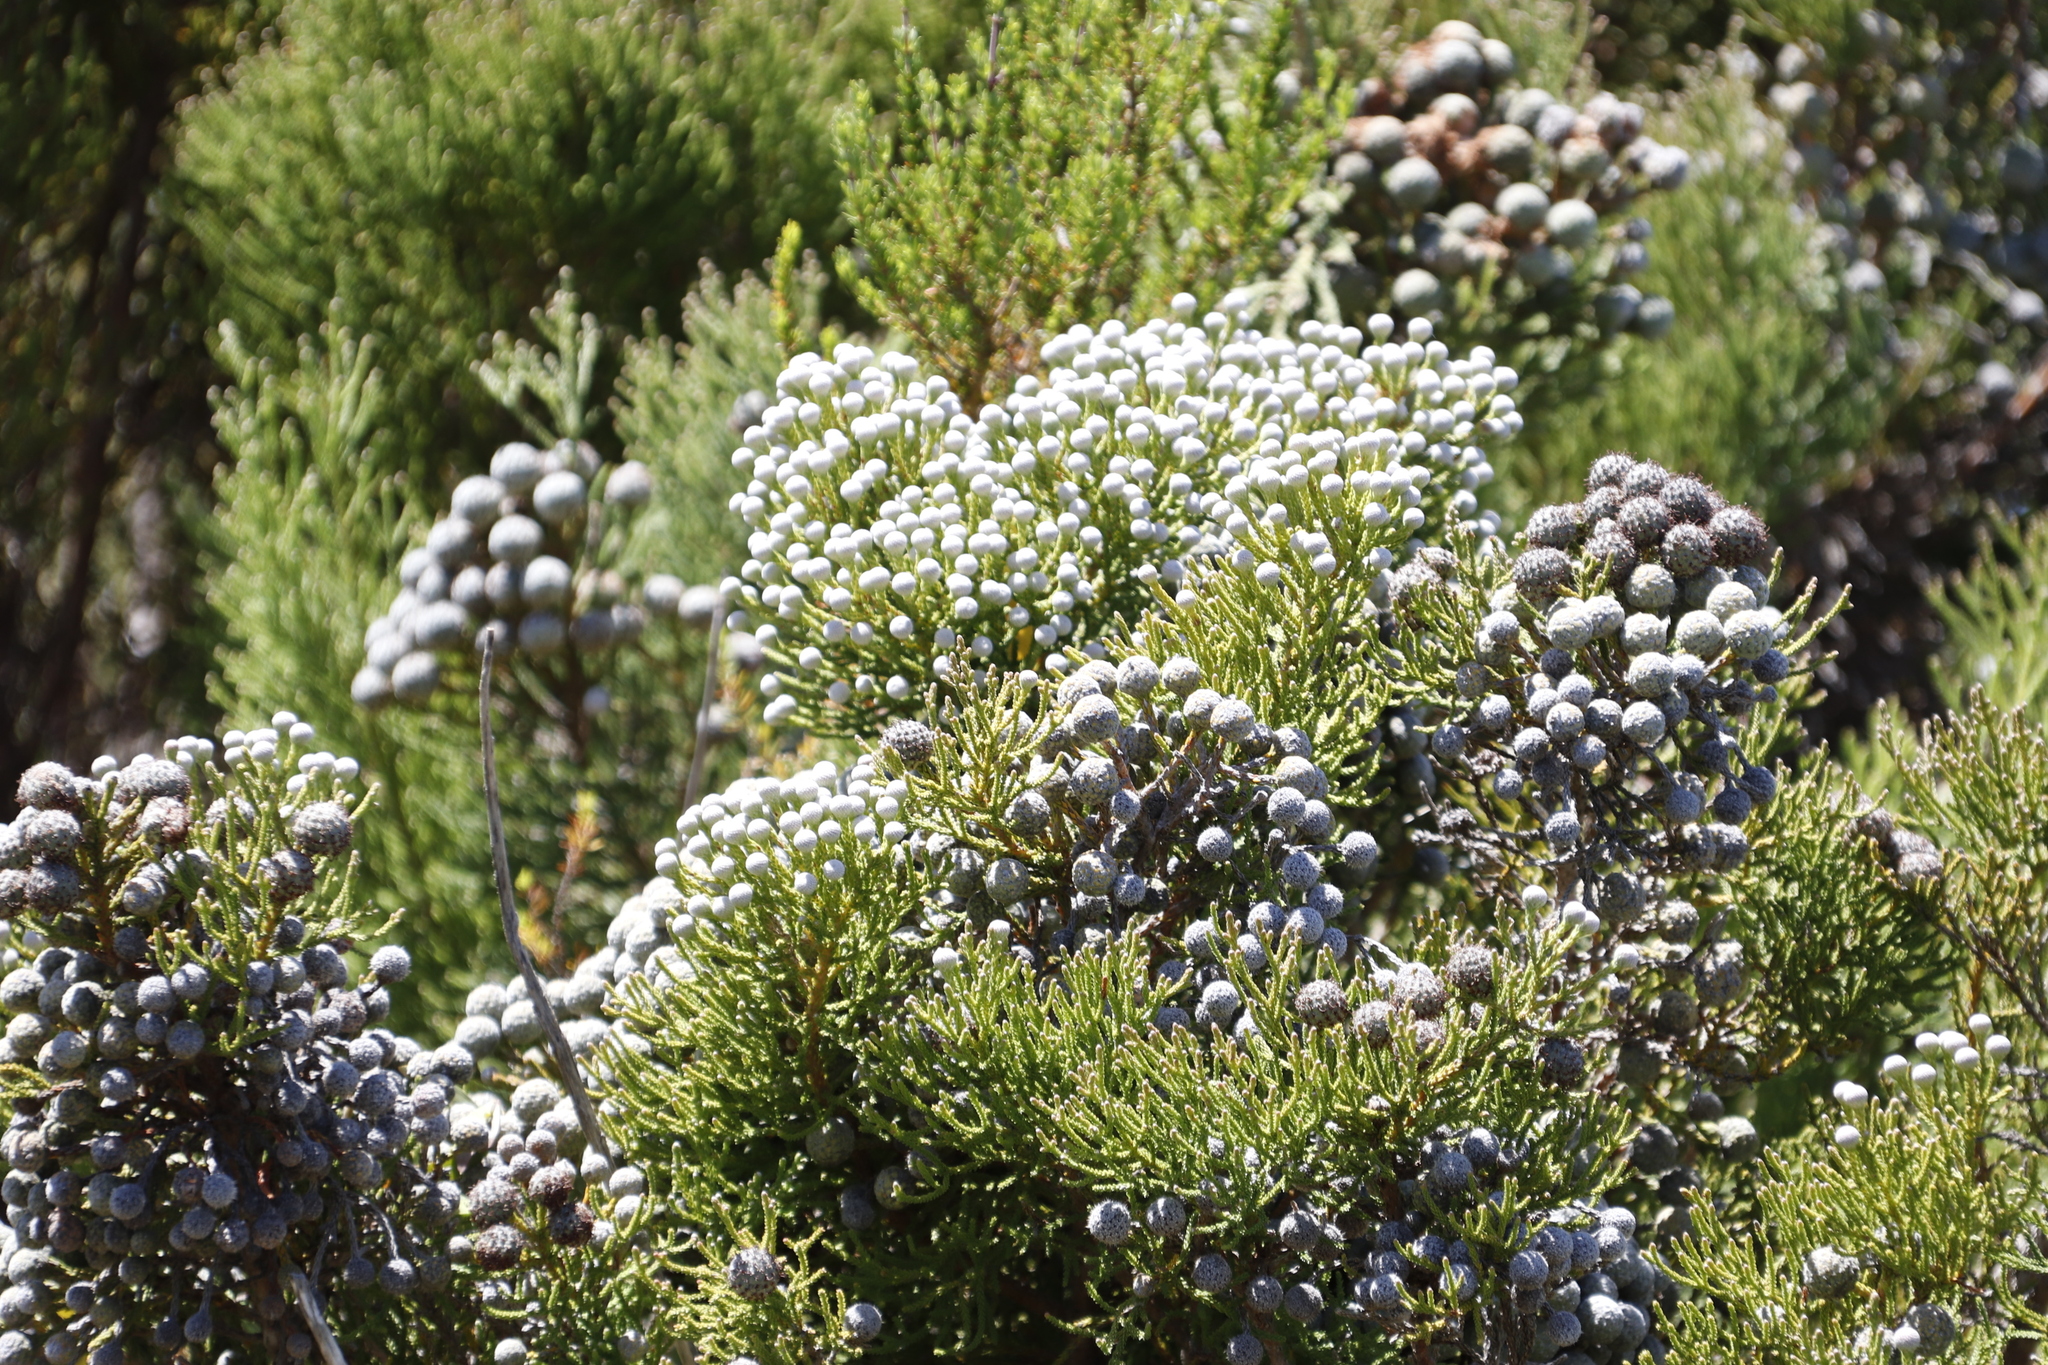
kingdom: Plantae
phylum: Tracheophyta
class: Magnoliopsida
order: Bruniales
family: Bruniaceae
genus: Brunia
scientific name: Brunia noduliflora
